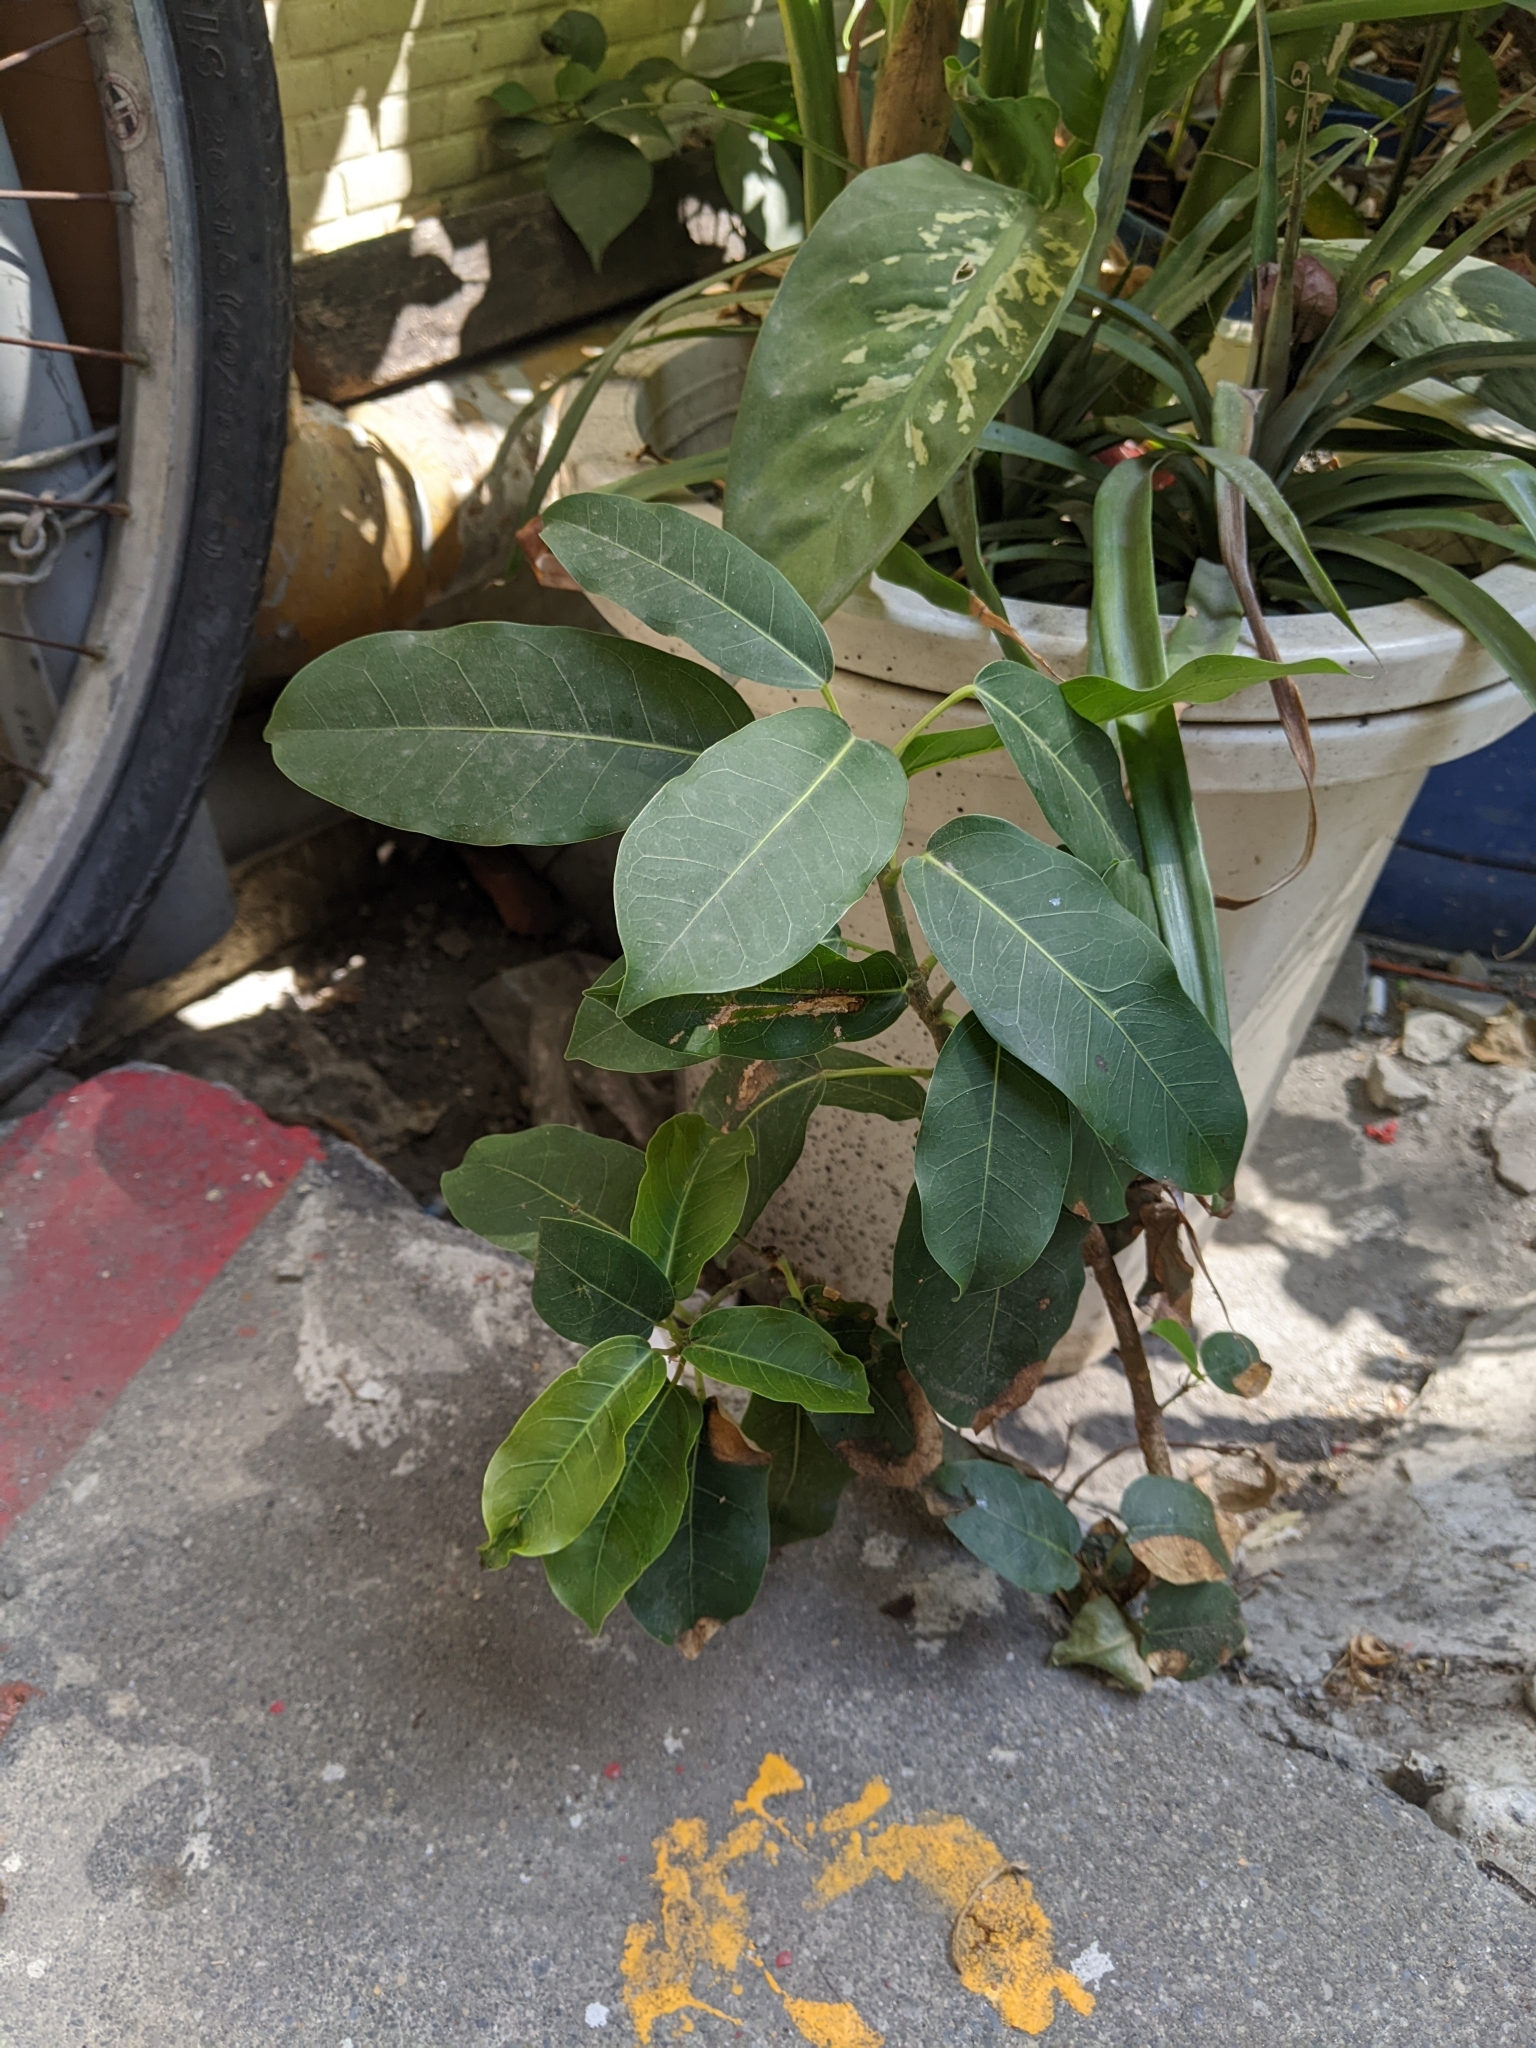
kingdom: Plantae
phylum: Tracheophyta
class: Magnoliopsida
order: Rosales
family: Moraceae
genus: Ficus
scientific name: Ficus subpisocarpa
